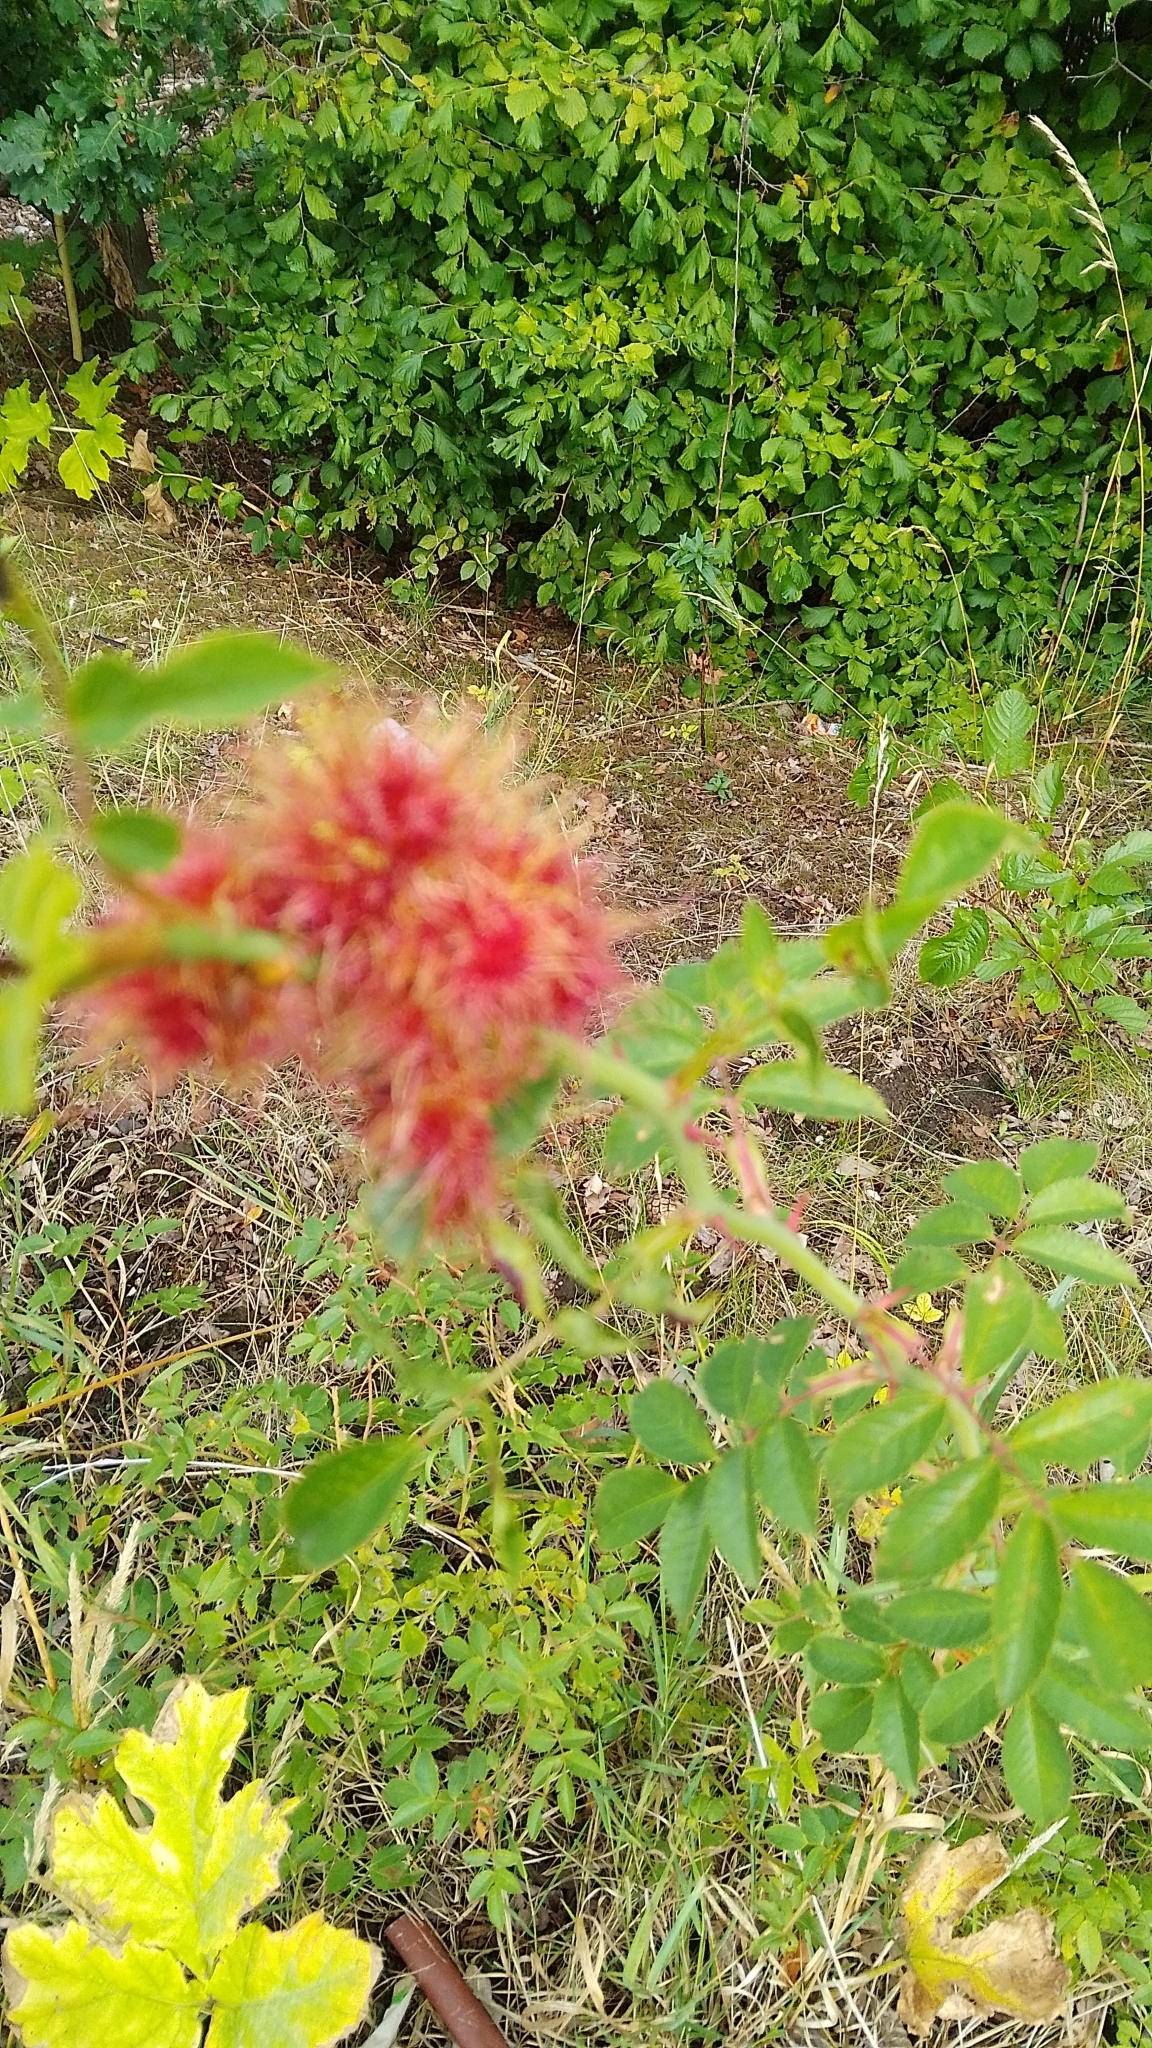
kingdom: Animalia
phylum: Arthropoda
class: Insecta
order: Hymenoptera
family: Cynipidae
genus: Diplolepis
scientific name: Diplolepis rosae
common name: Bedeguar gall
